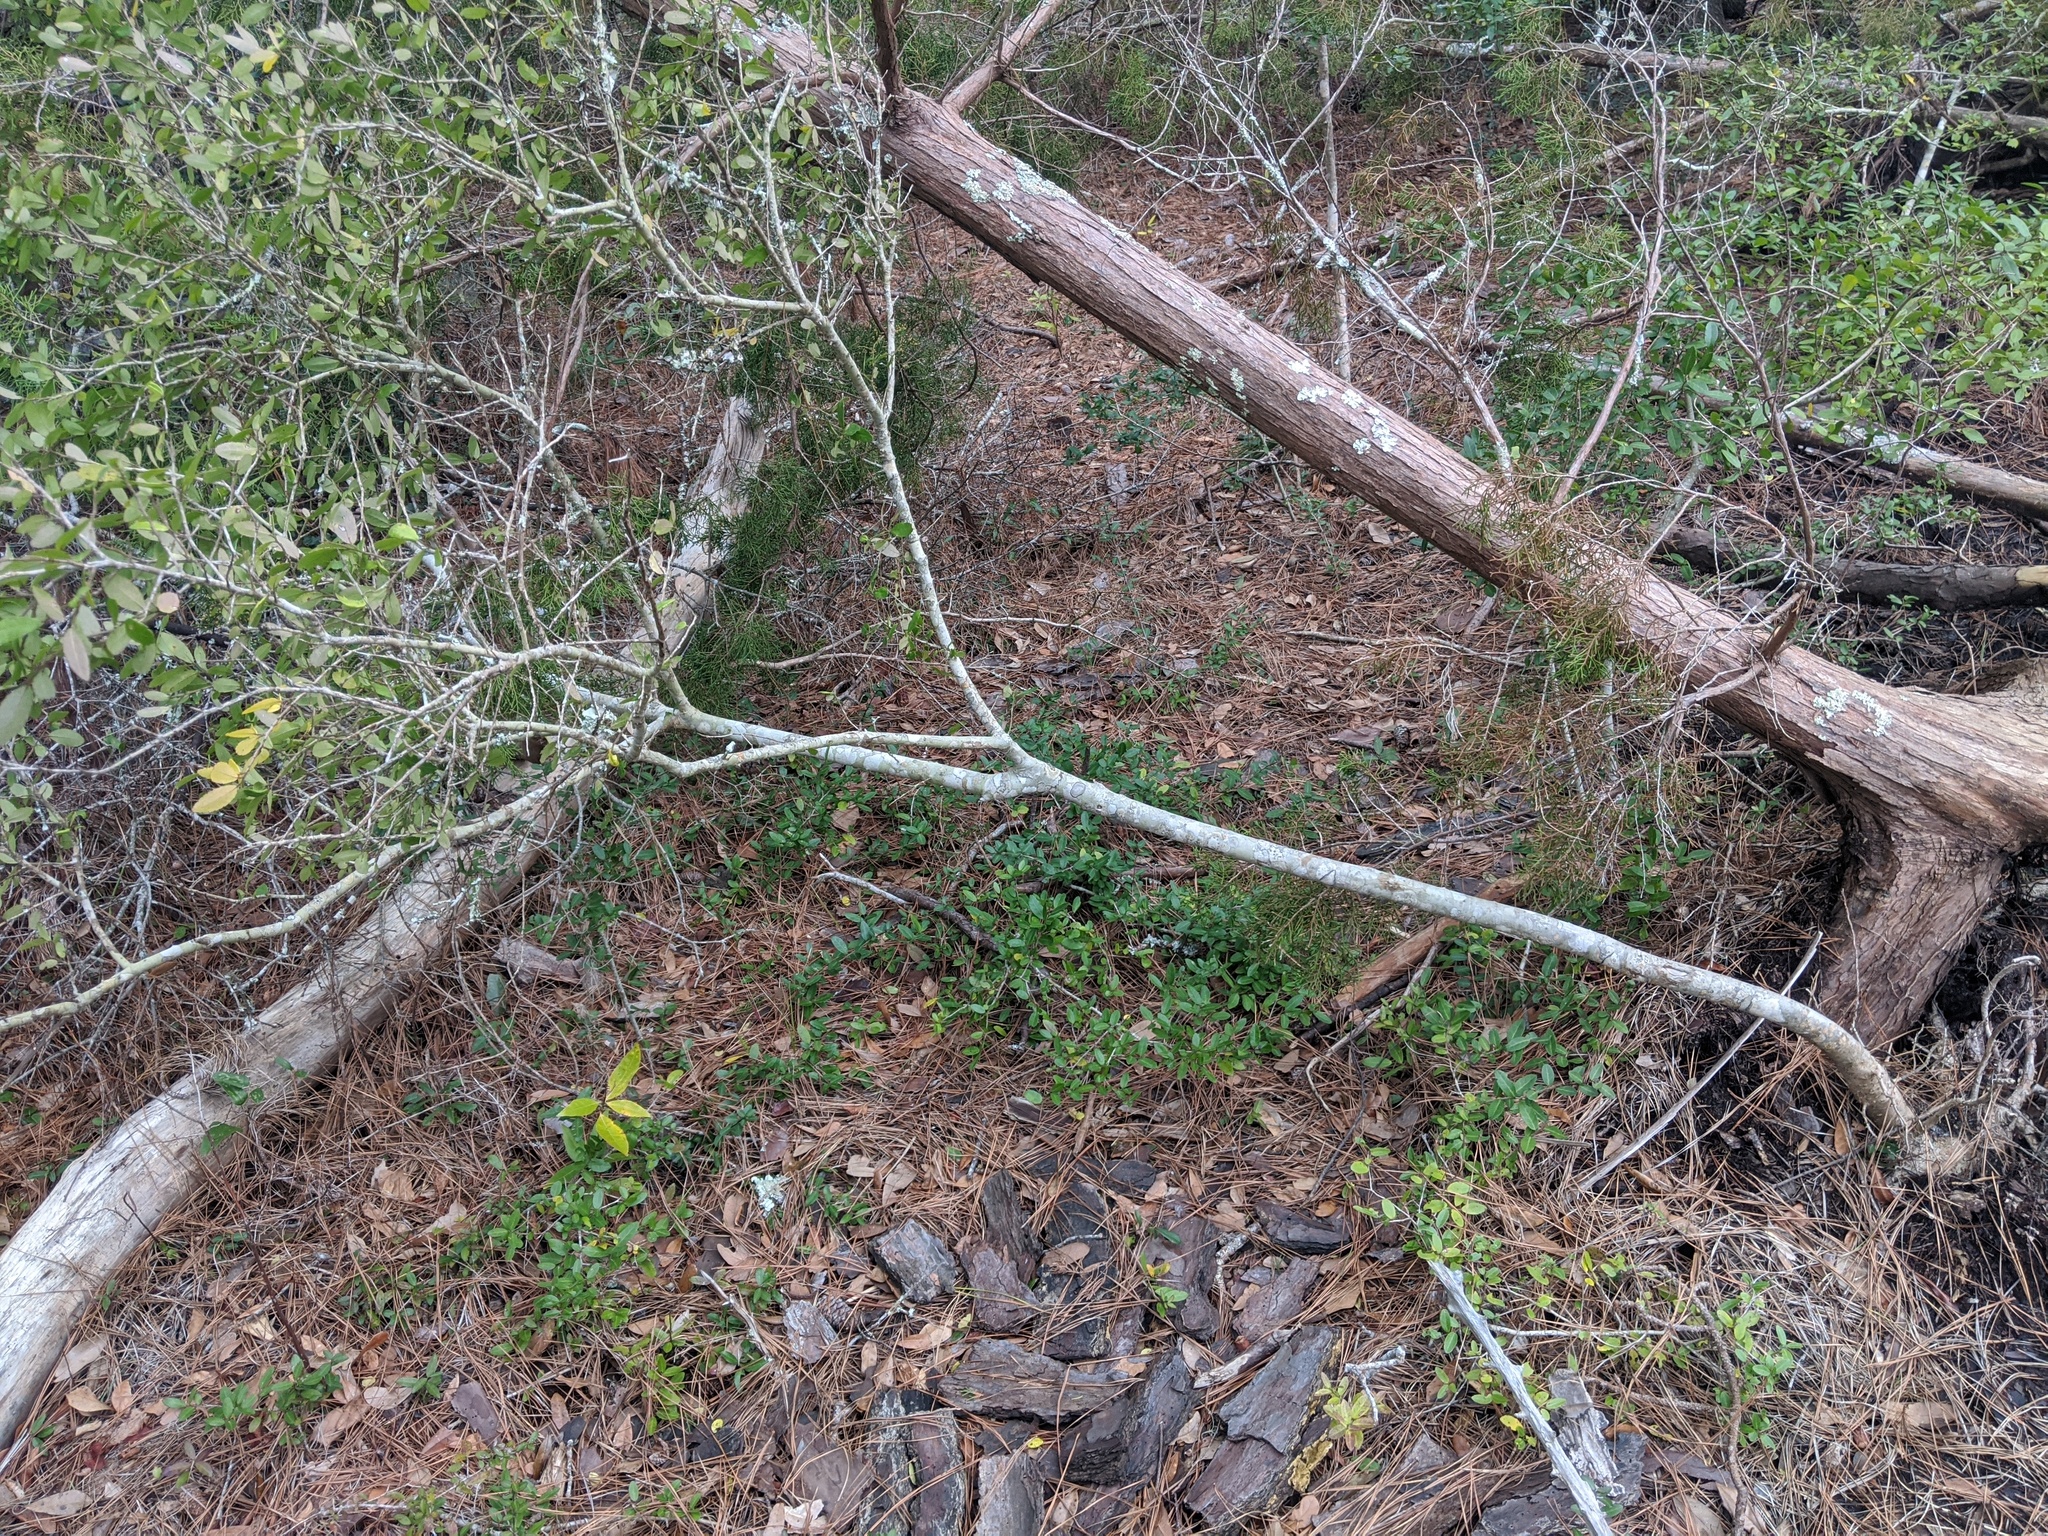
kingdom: Plantae
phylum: Tracheophyta
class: Magnoliopsida
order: Aquifoliales
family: Aquifoliaceae
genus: Ilex
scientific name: Ilex vomitoria
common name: Yaupon holly
